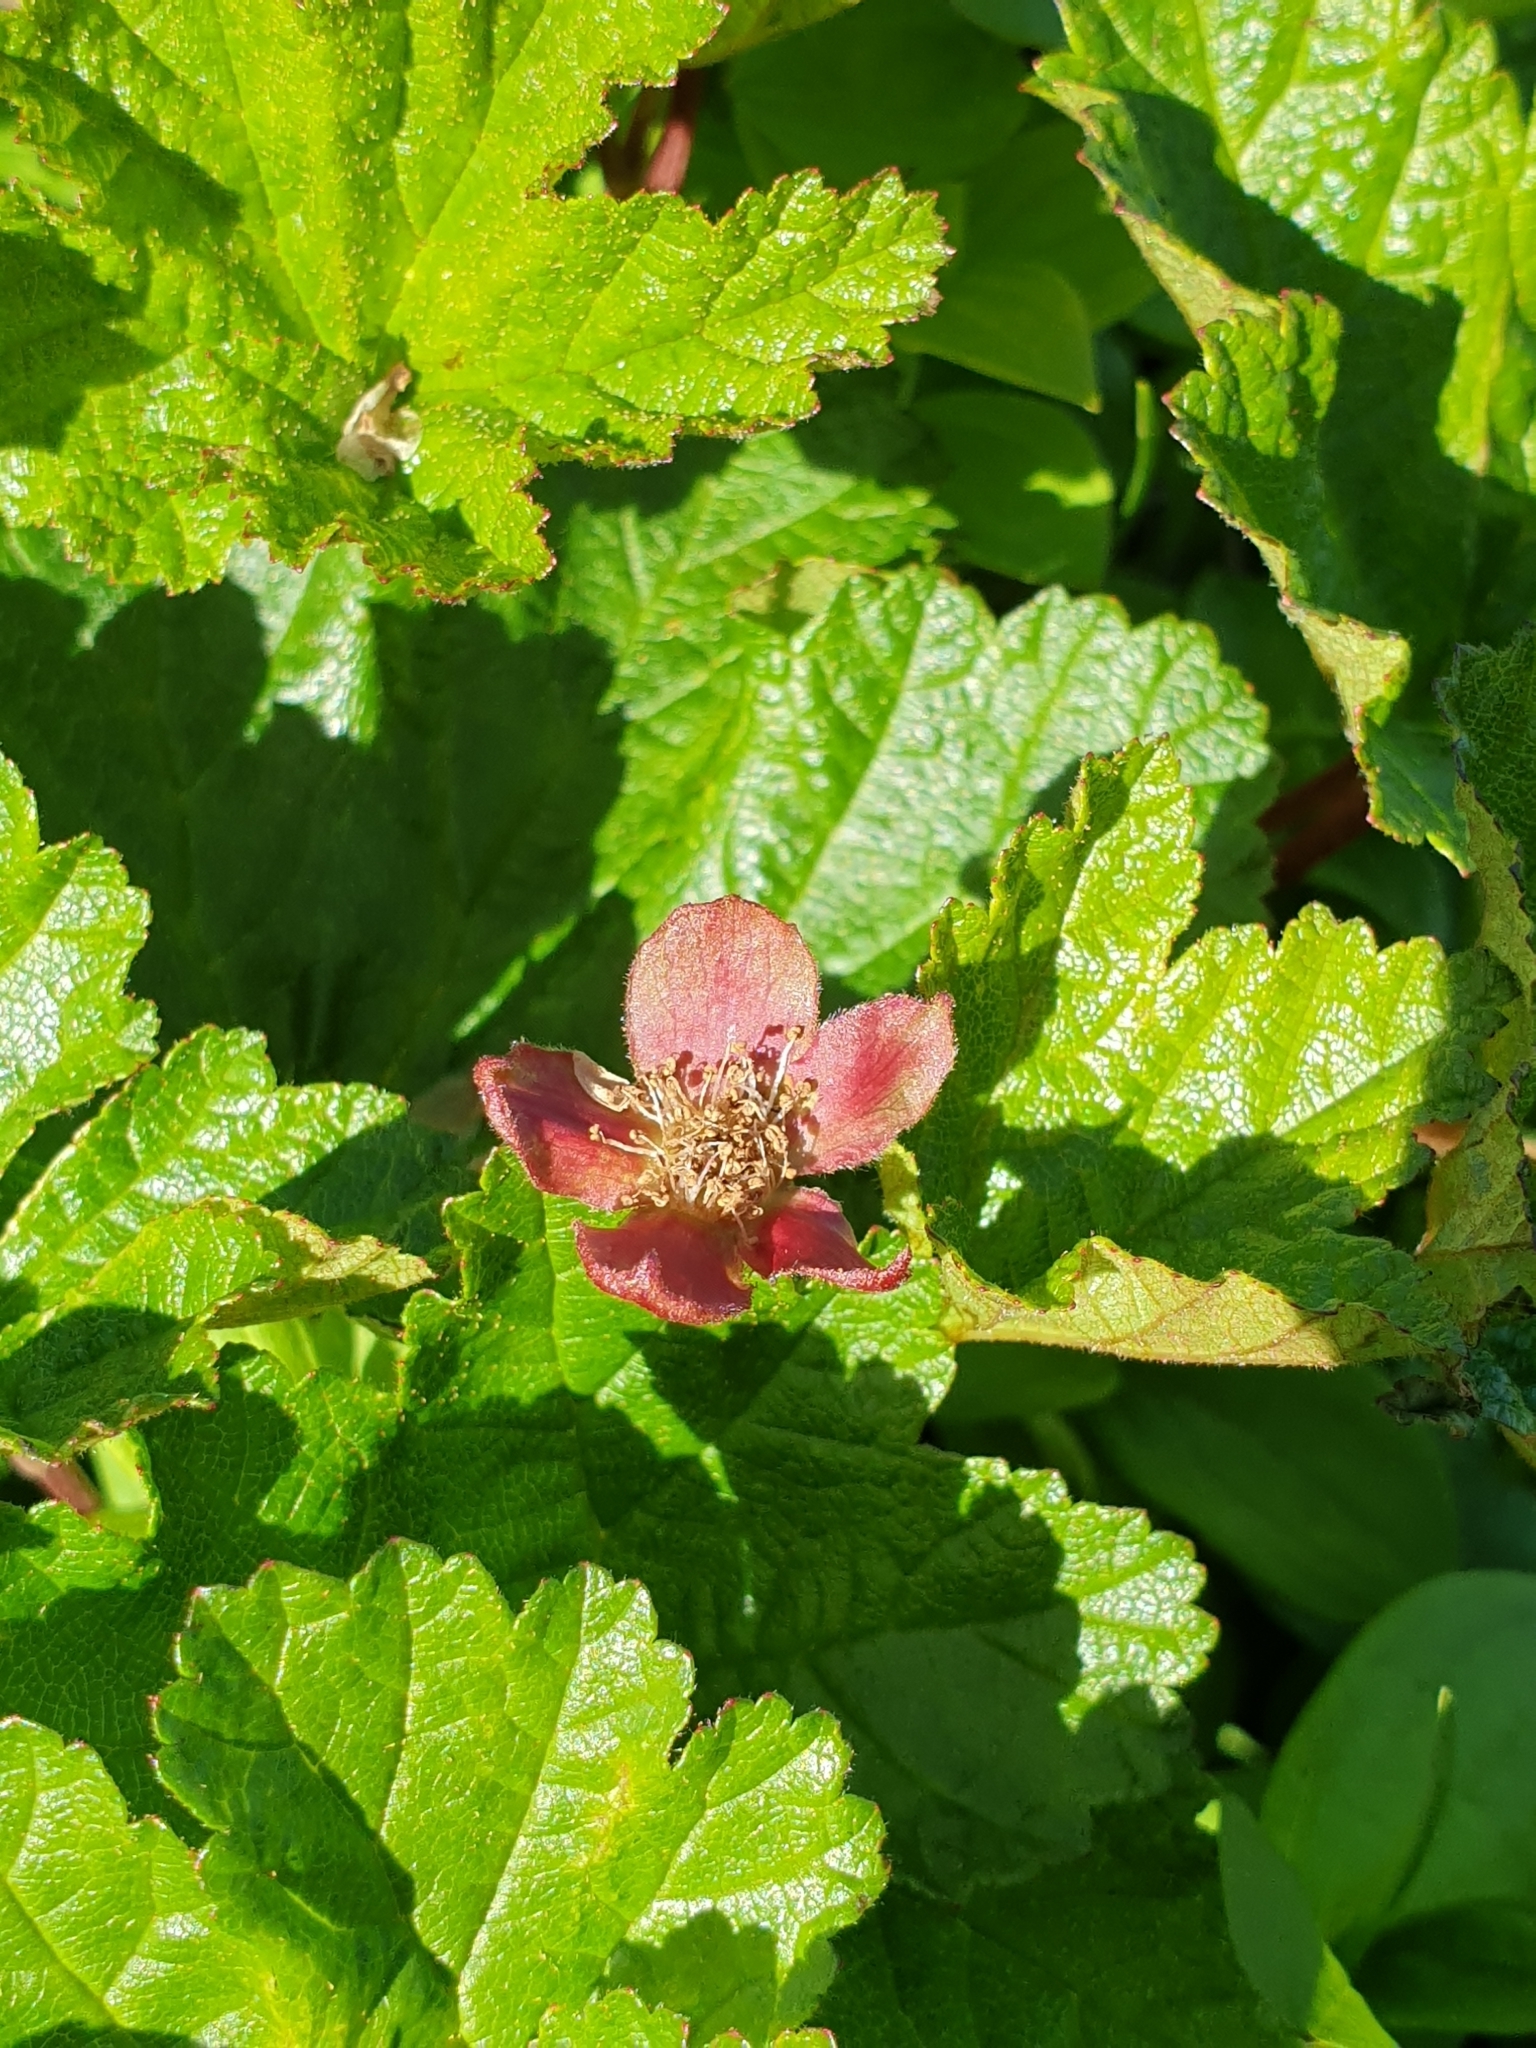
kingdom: Plantae
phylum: Tracheophyta
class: Magnoliopsida
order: Rosales
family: Rosaceae
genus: Rubus
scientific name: Rubus chamaemorus
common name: Cloudberry
